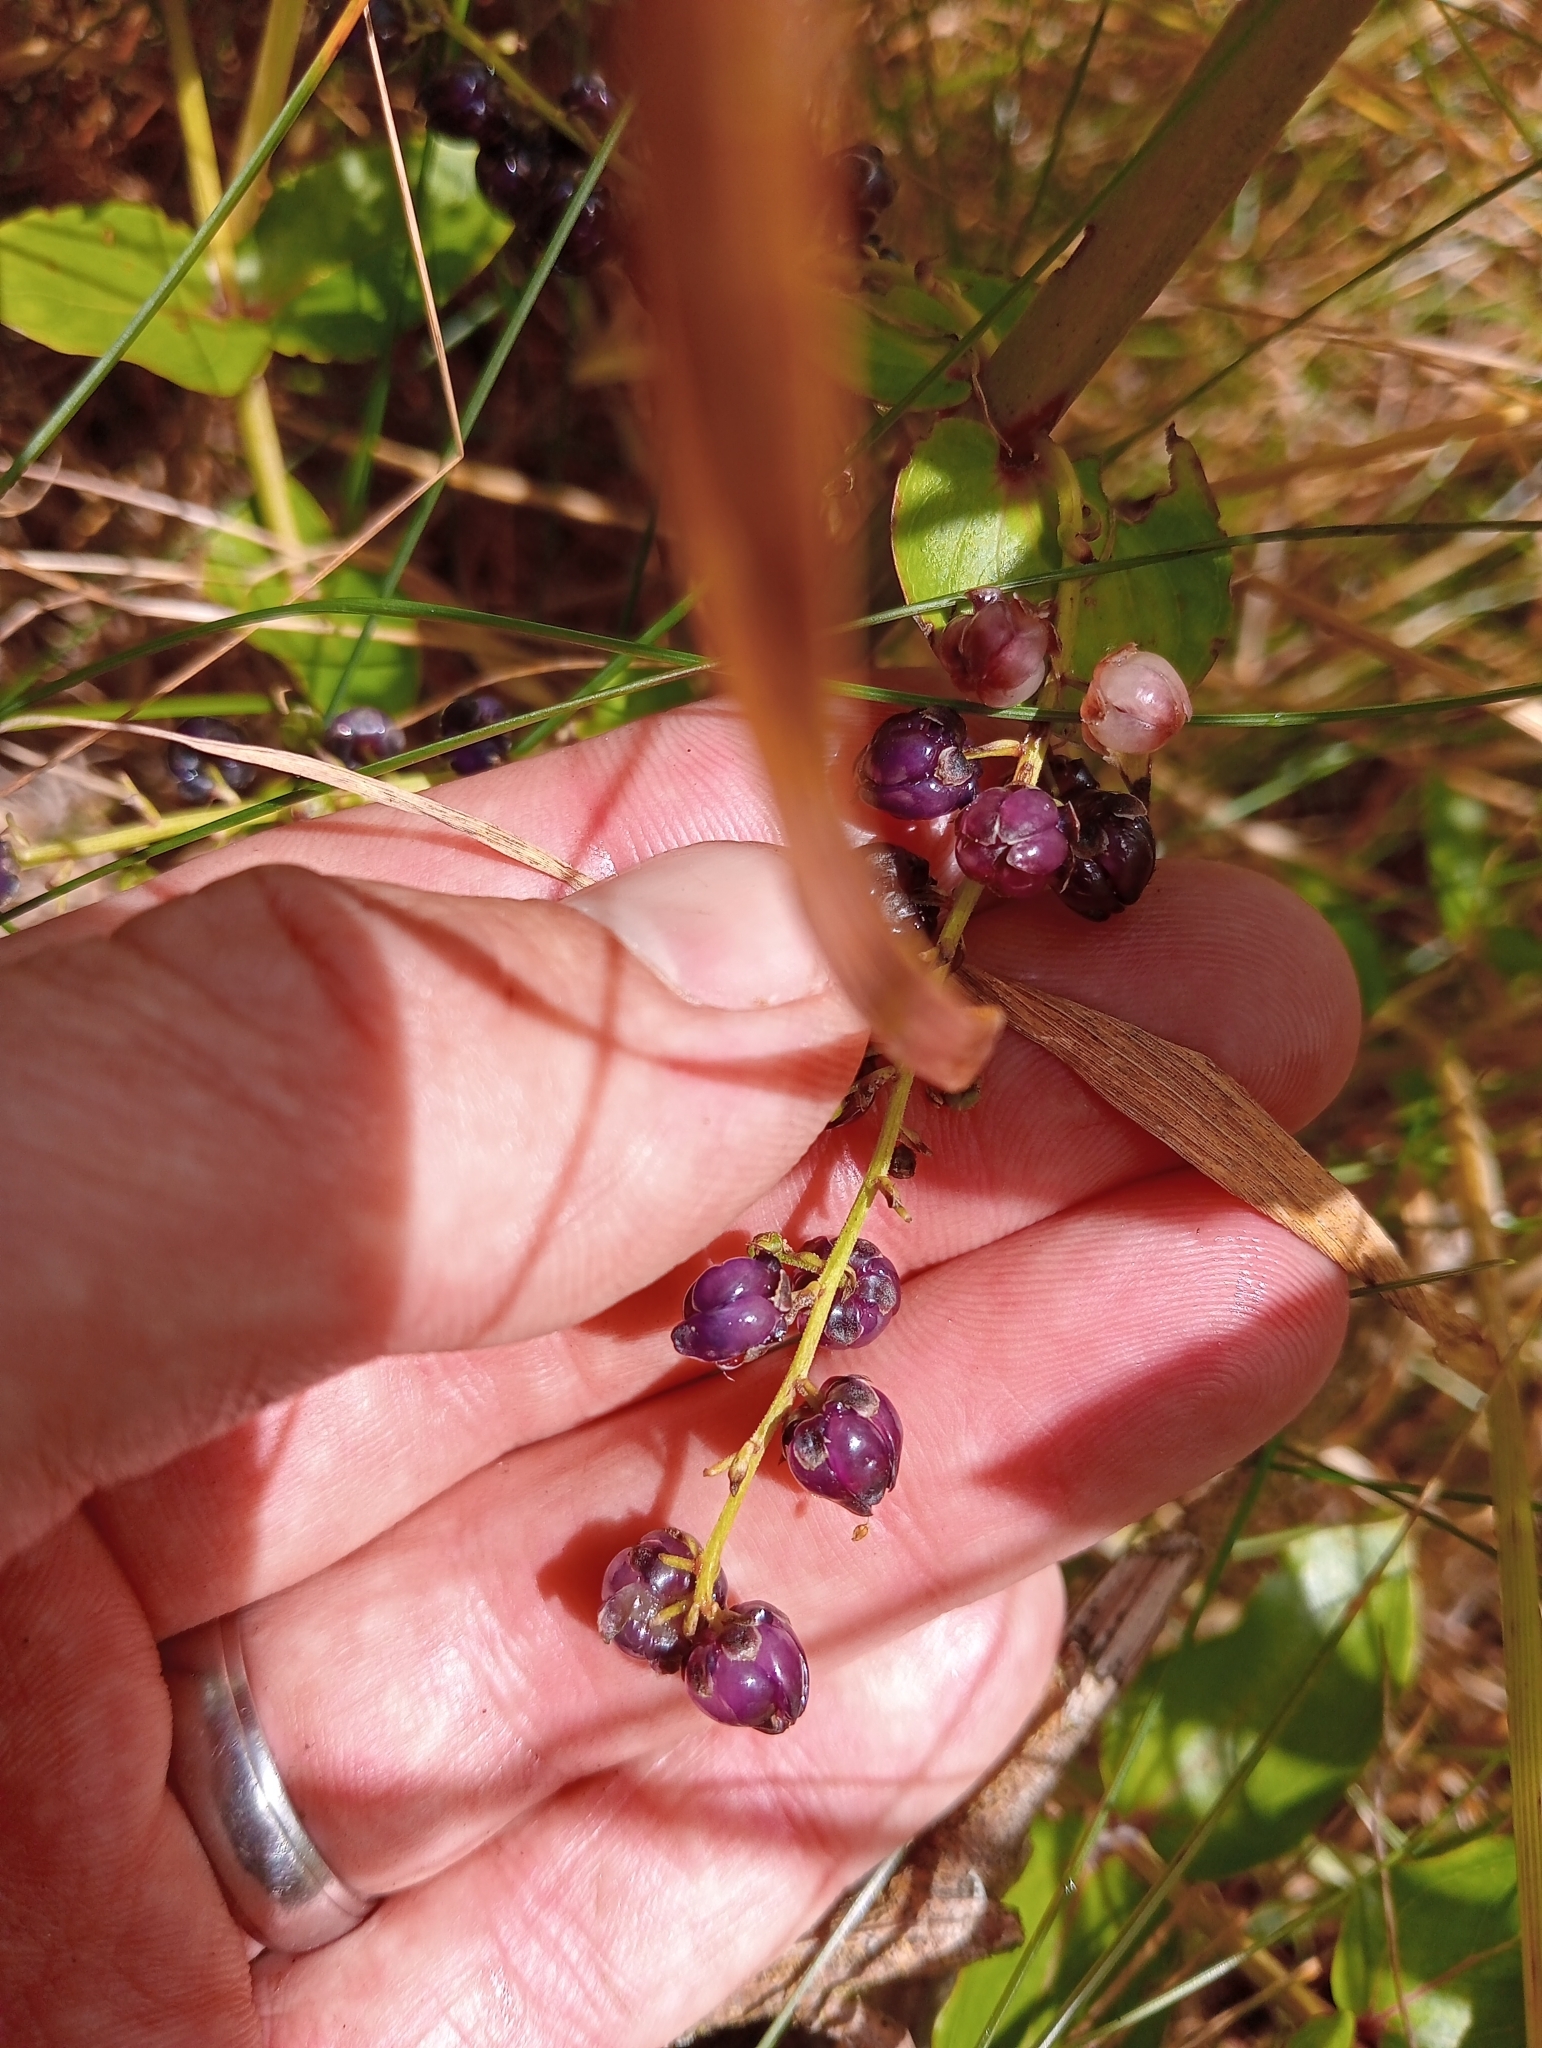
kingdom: Plantae
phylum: Tracheophyta
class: Magnoliopsida
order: Cucurbitales
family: Coriariaceae
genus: Coriaria
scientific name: Coriaria sarmentosa
